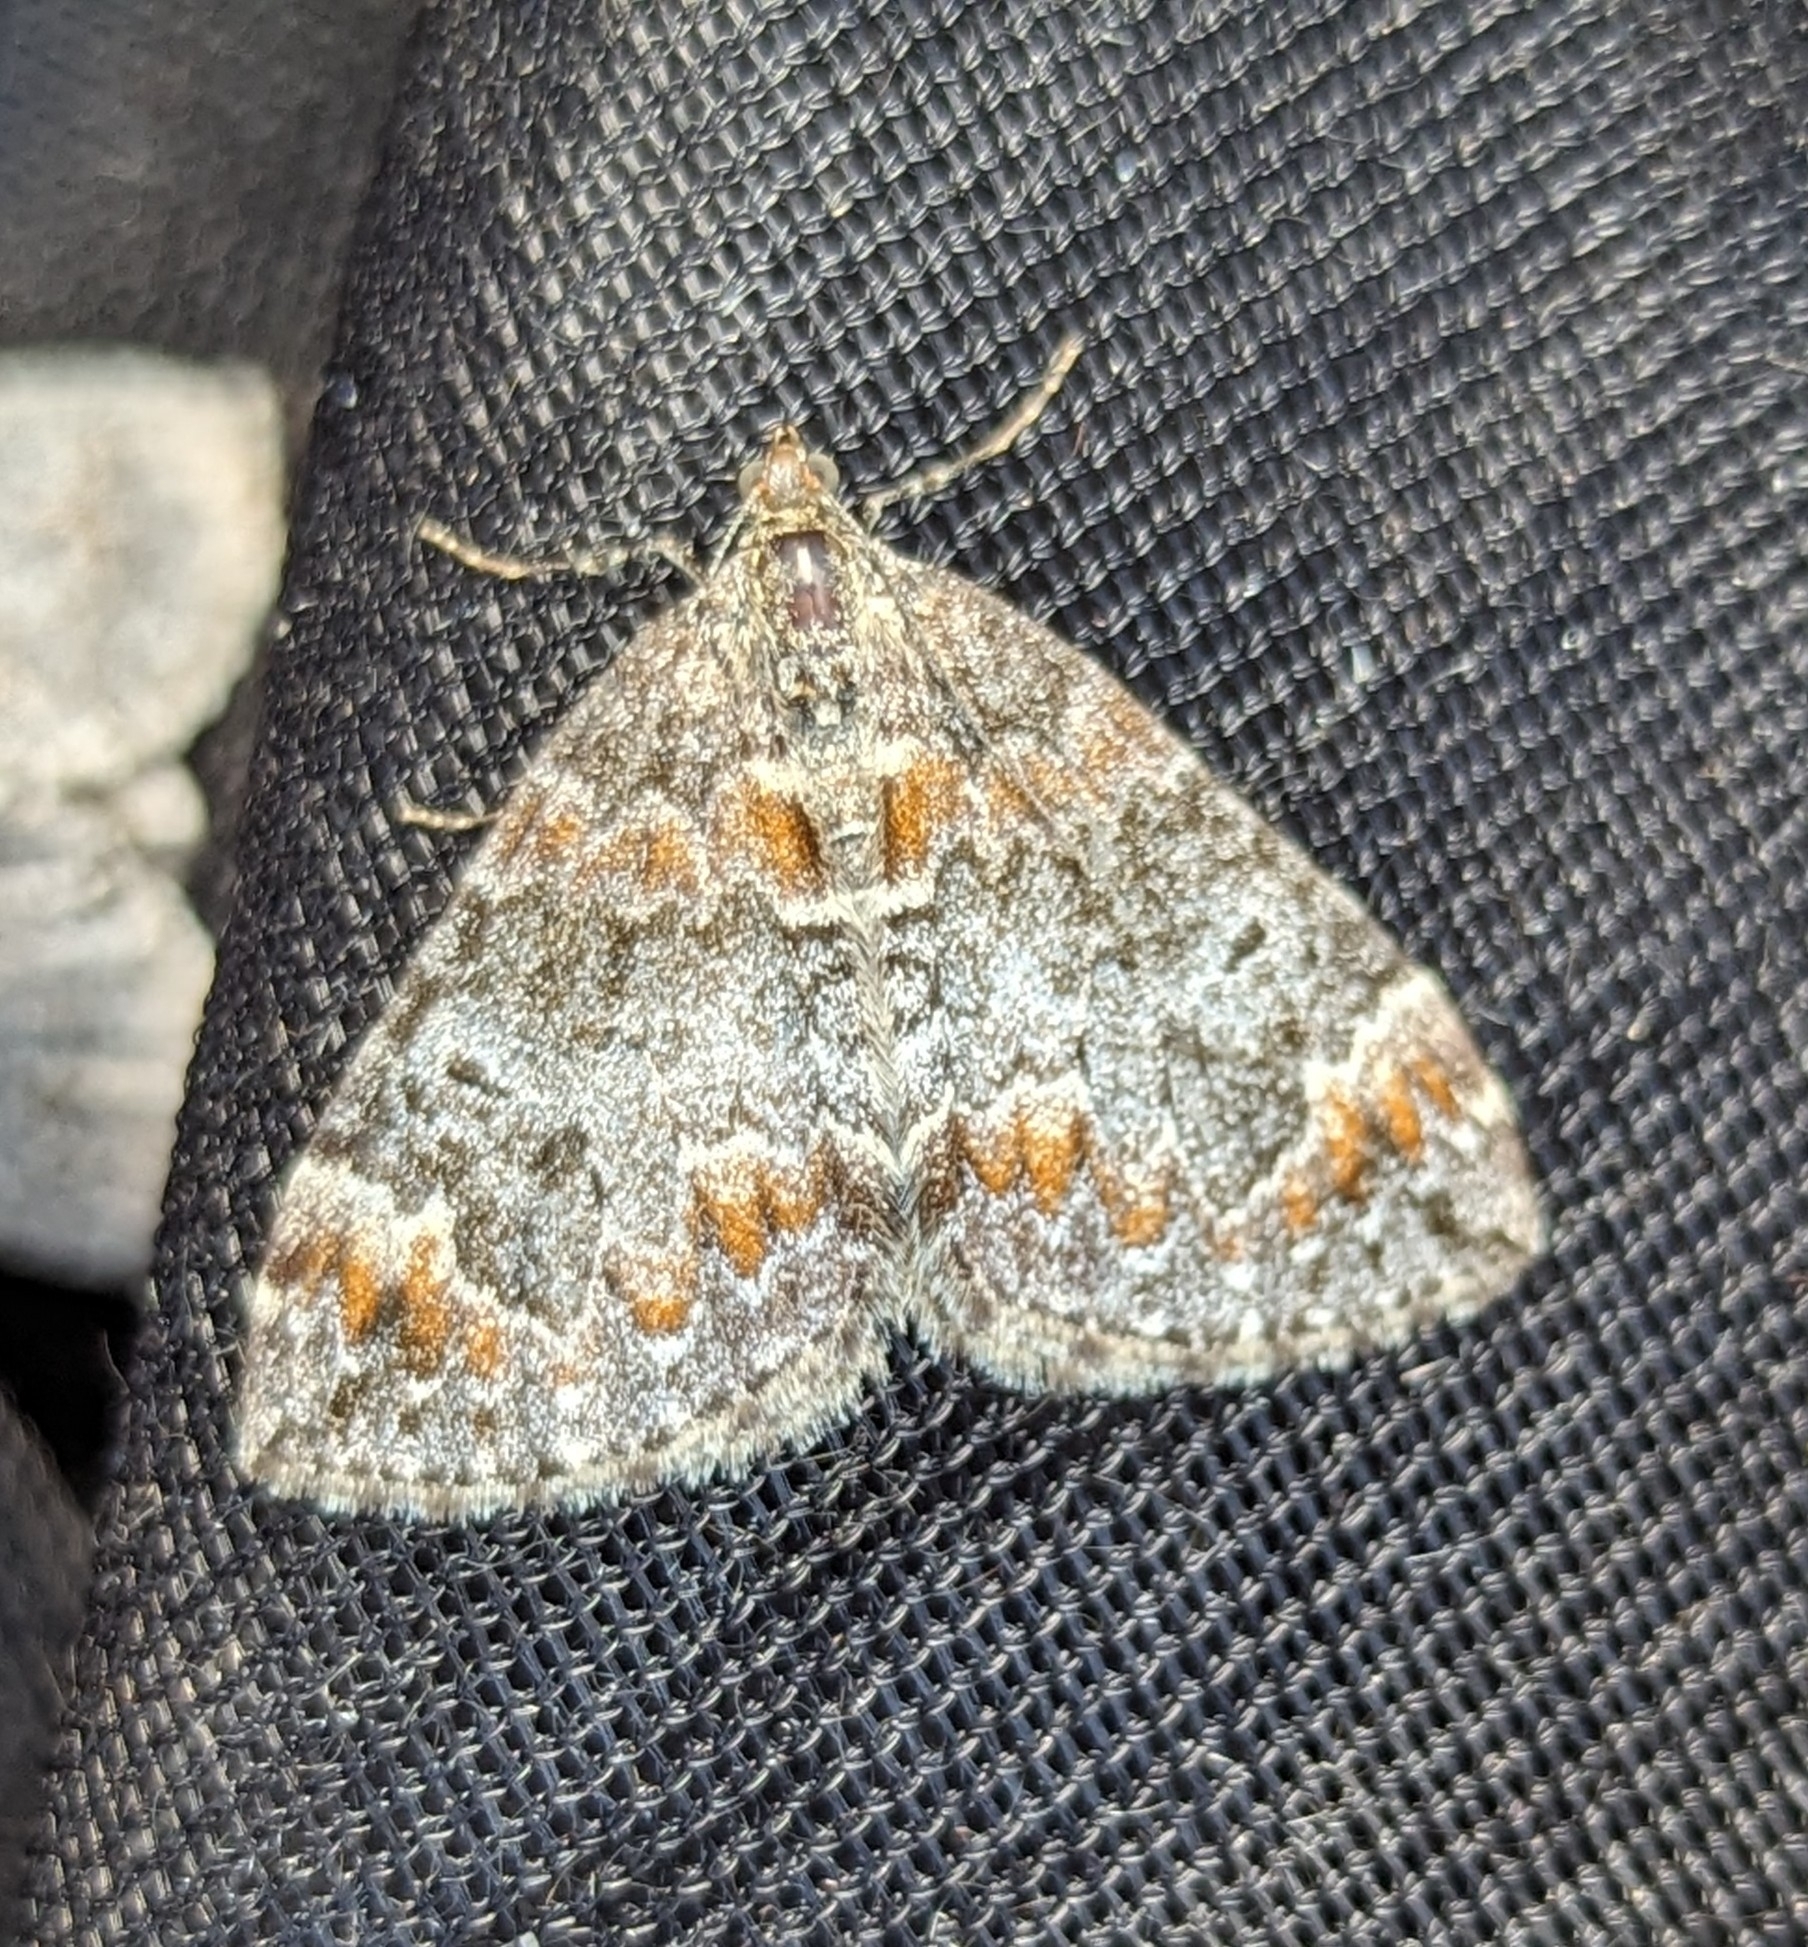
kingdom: Animalia
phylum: Arthropoda
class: Insecta
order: Lepidoptera
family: Geometridae
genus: Dysstroma
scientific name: Dysstroma citrata
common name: Dark marbled carpet
